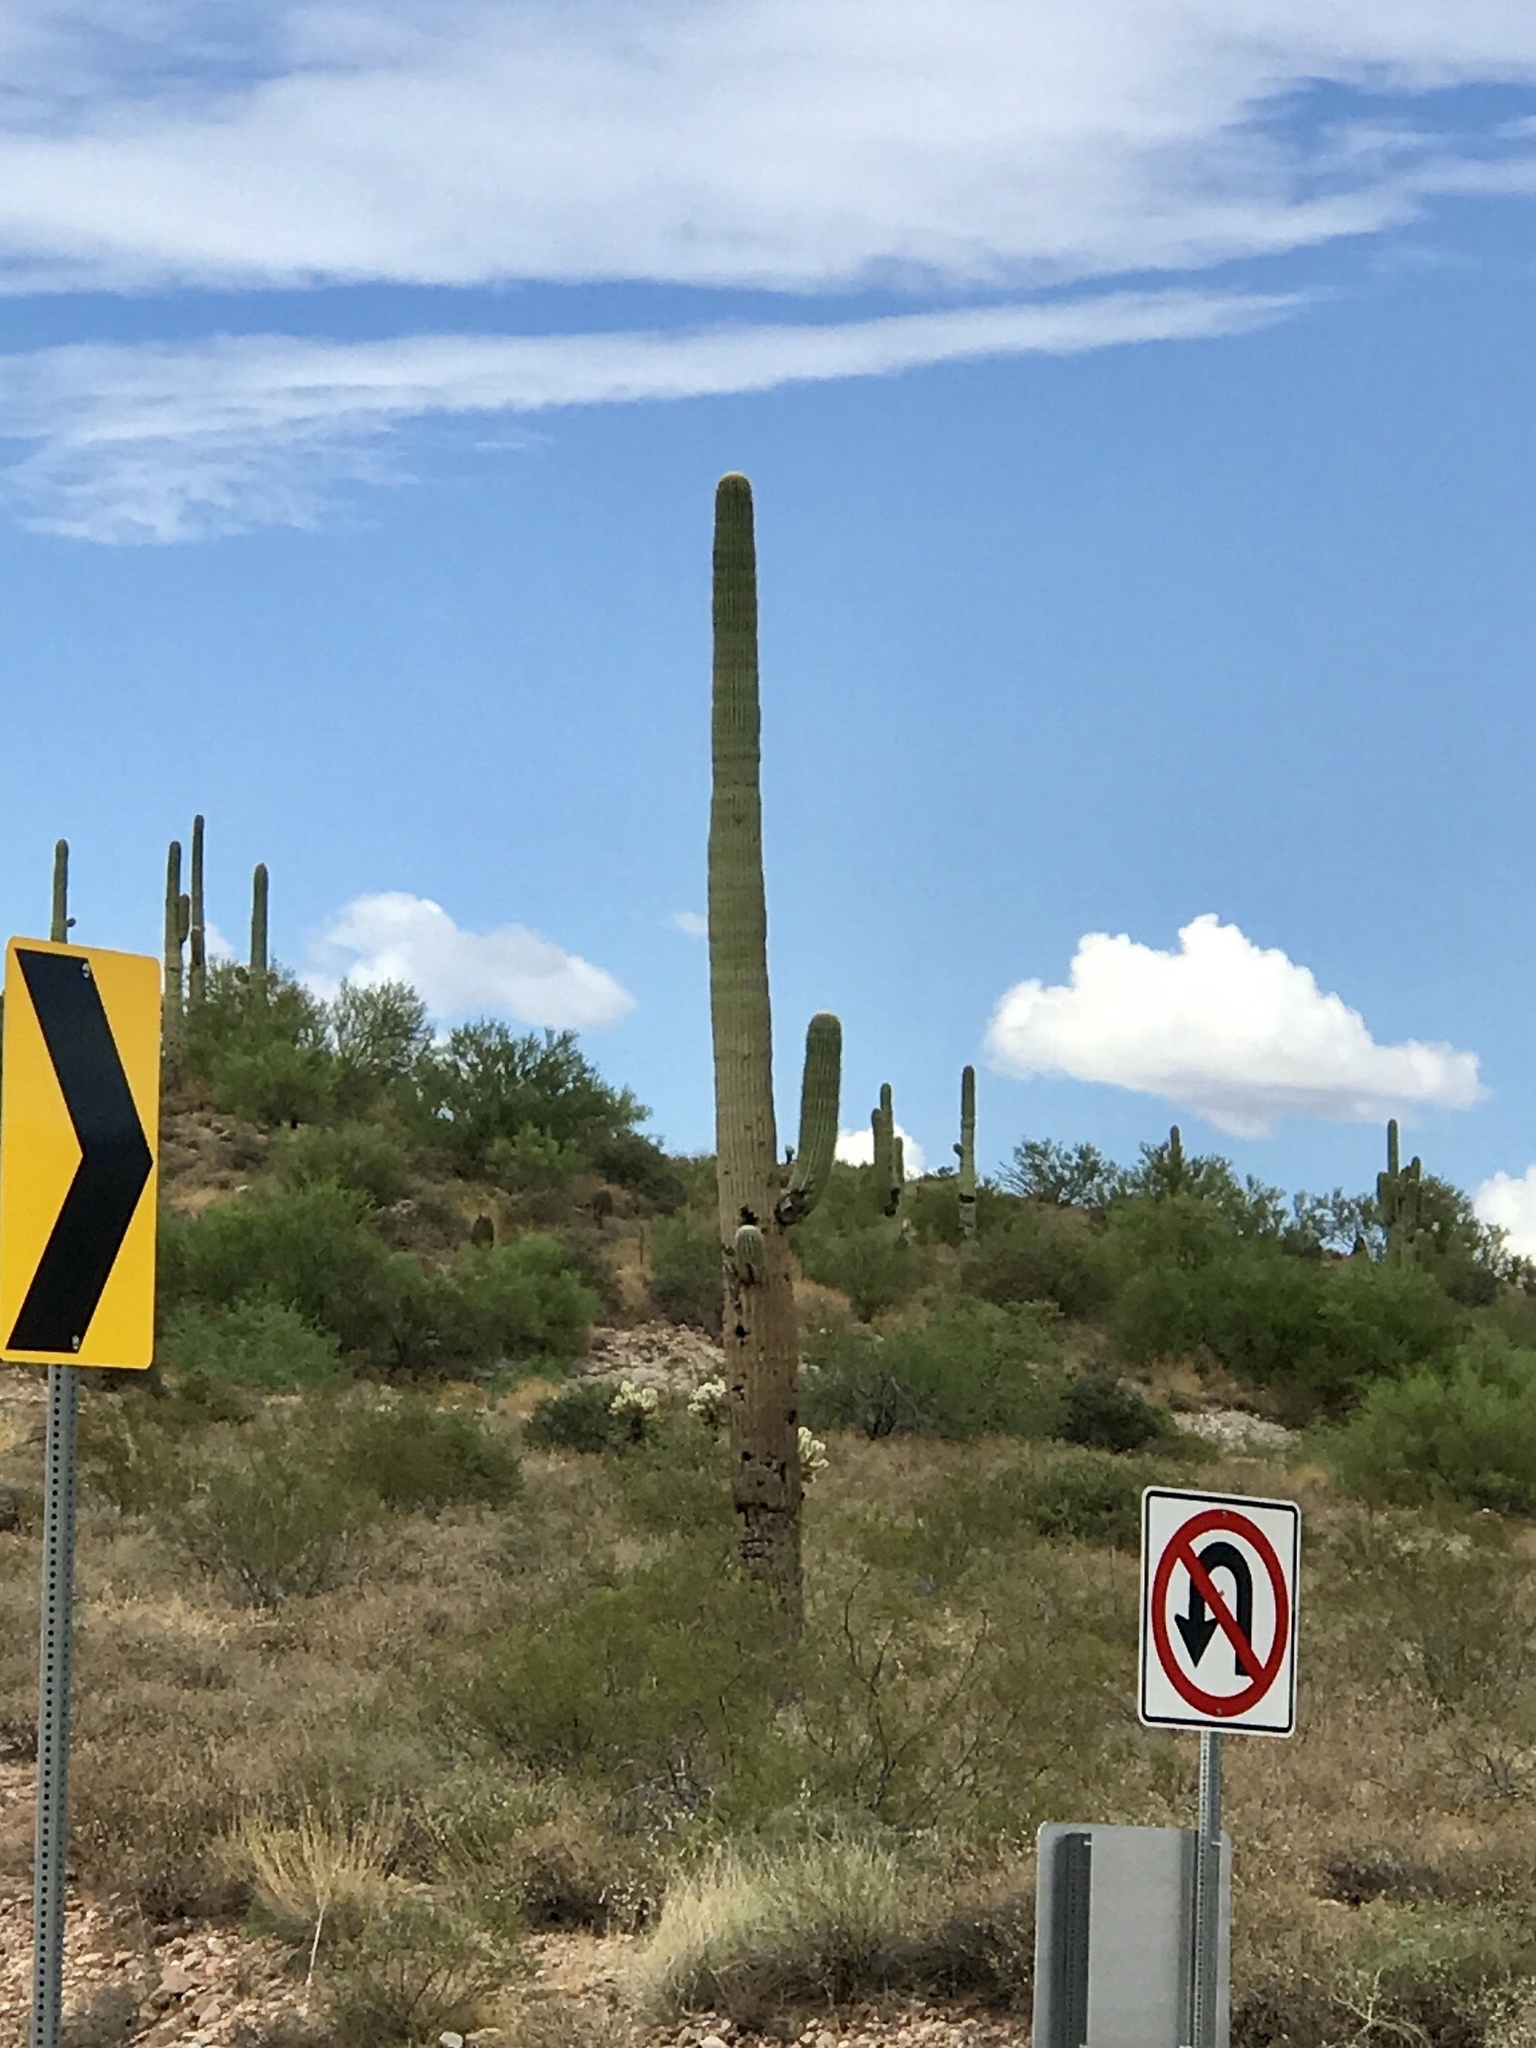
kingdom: Plantae
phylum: Tracheophyta
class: Magnoliopsida
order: Caryophyllales
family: Cactaceae
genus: Carnegiea
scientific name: Carnegiea gigantea
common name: Saguaro
